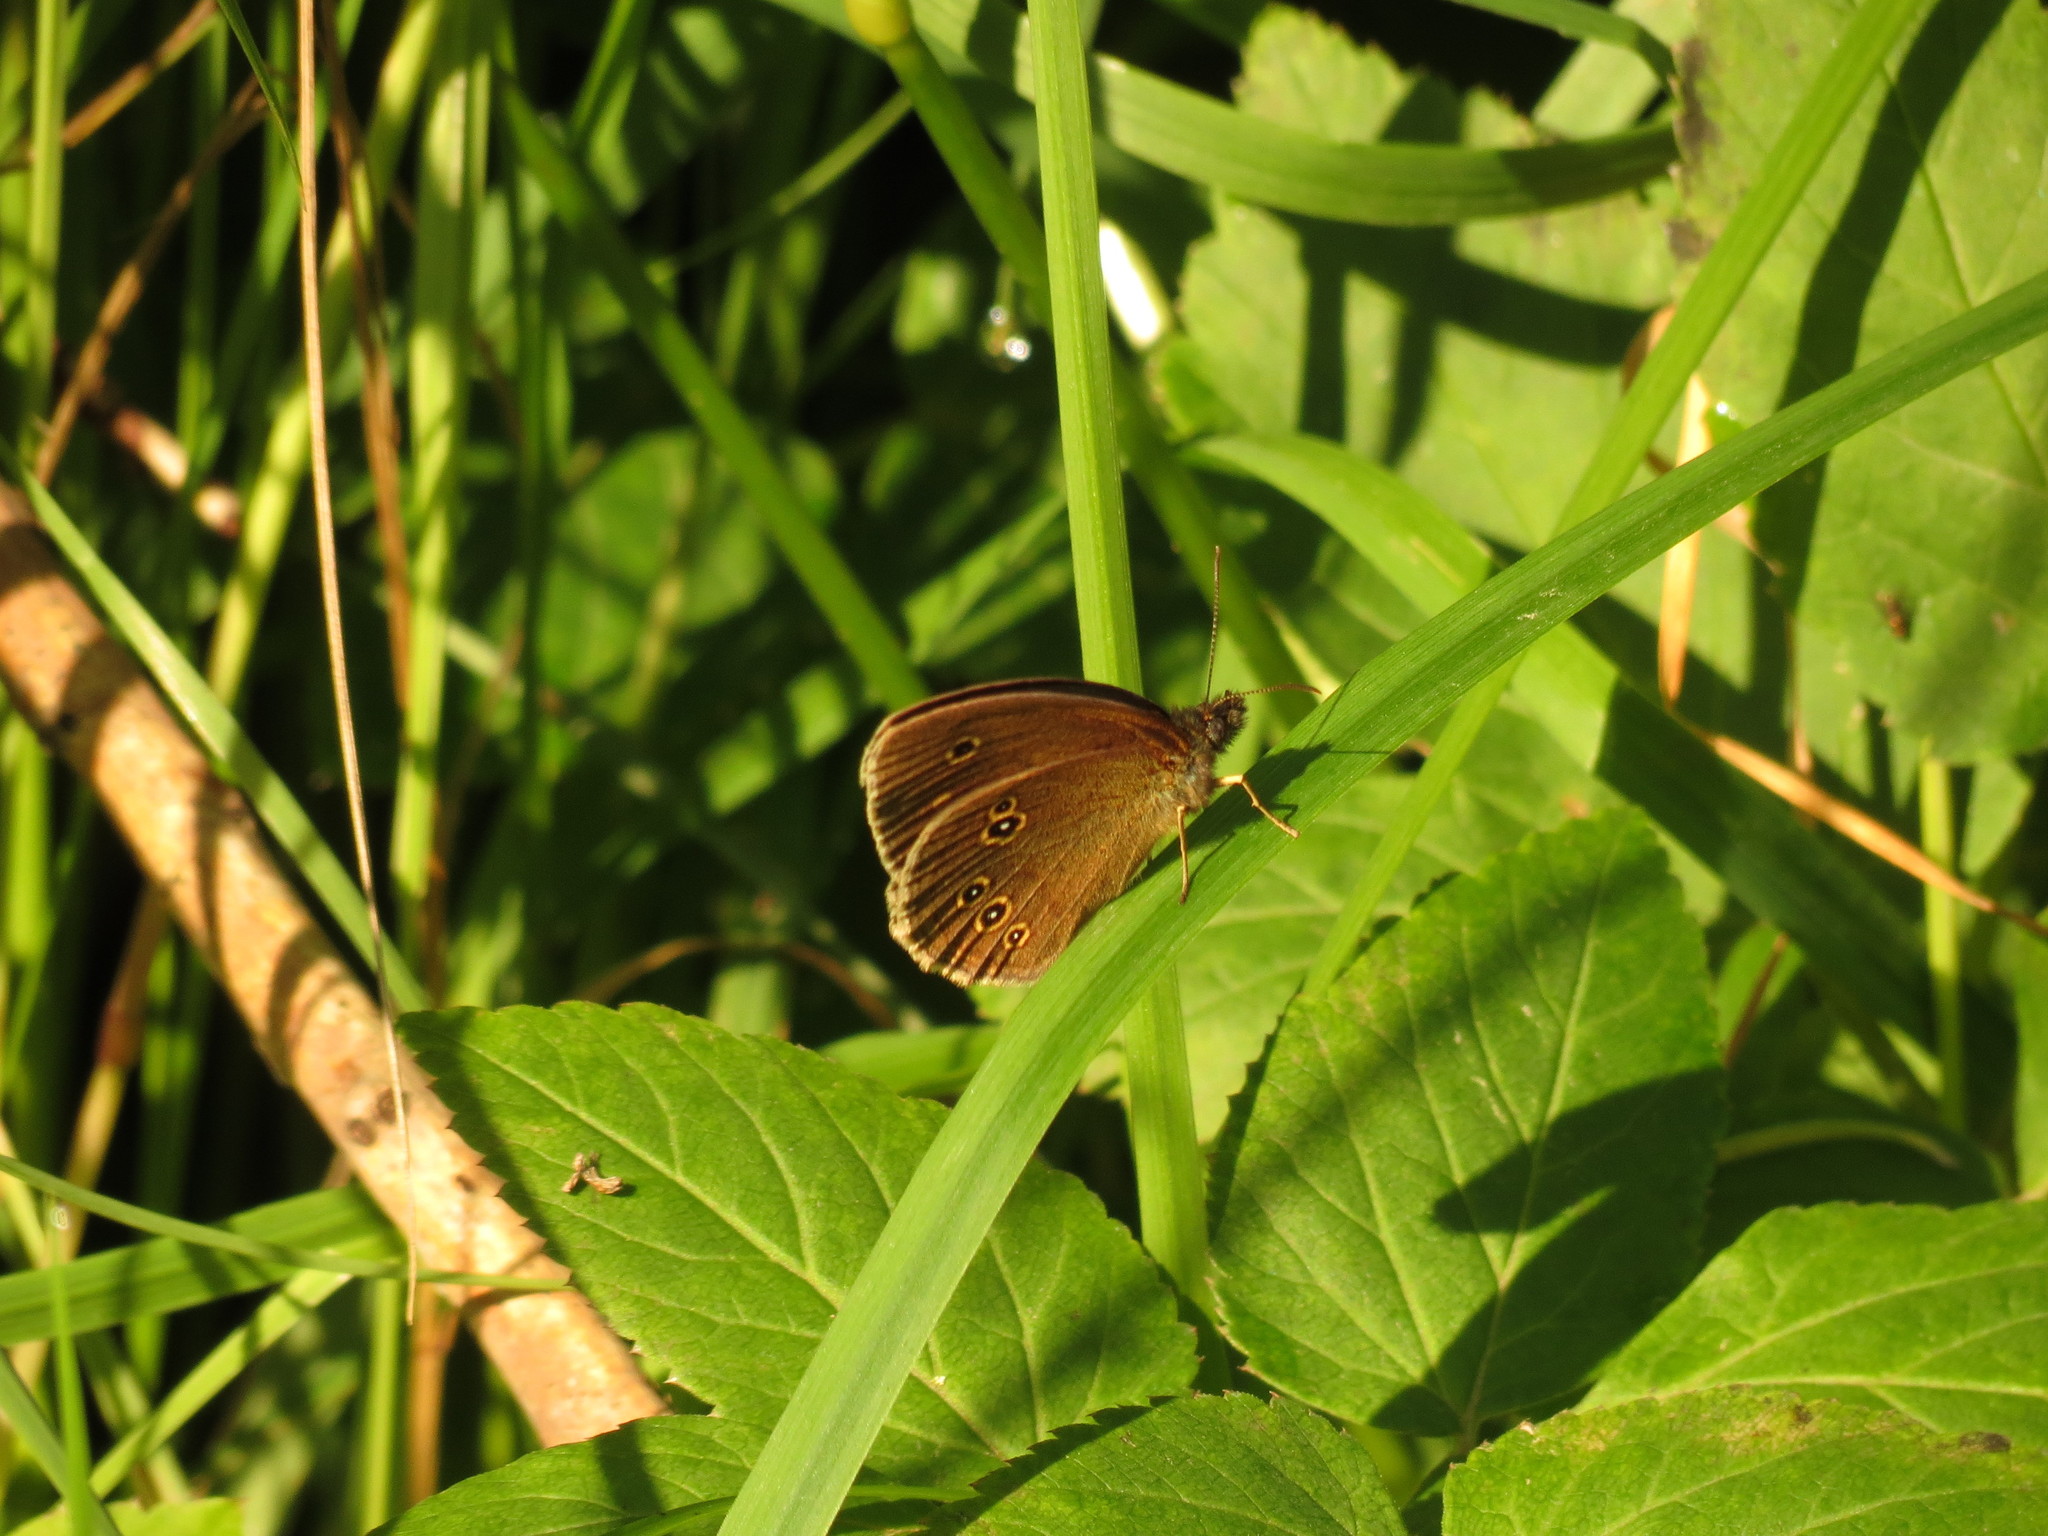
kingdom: Animalia
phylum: Arthropoda
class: Insecta
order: Lepidoptera
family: Nymphalidae
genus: Aphantopus
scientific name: Aphantopus hyperantus
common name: Ringlet
